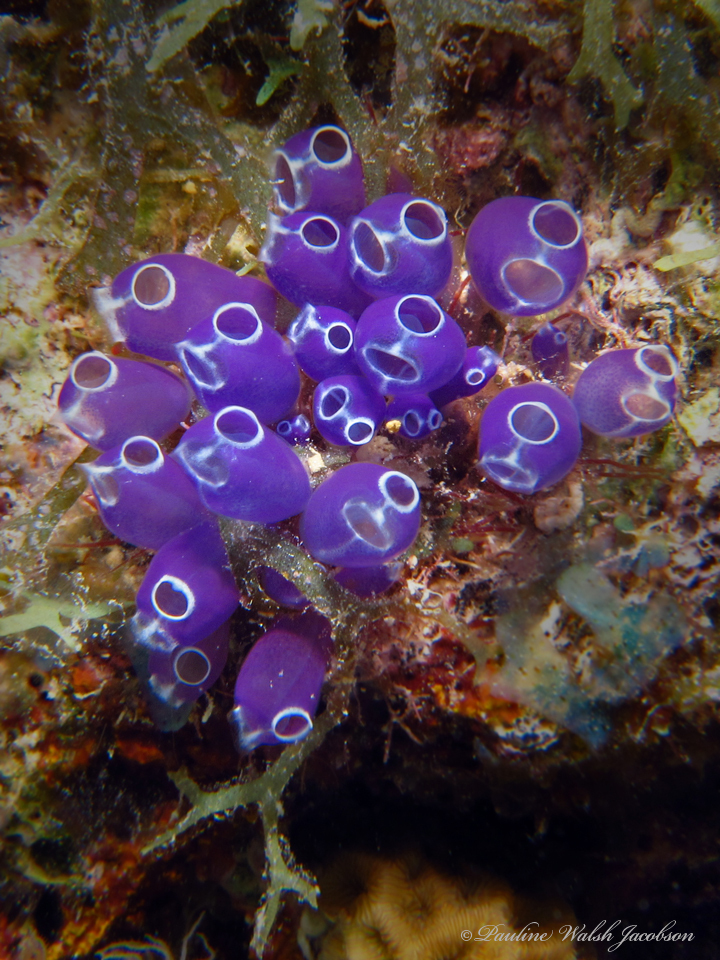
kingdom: Animalia
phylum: Chordata
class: Ascidiacea
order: Aplousobranchia
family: Clavelinidae
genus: Clavelina
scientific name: Clavelina puertosecensis
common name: Blue bell tunicate
